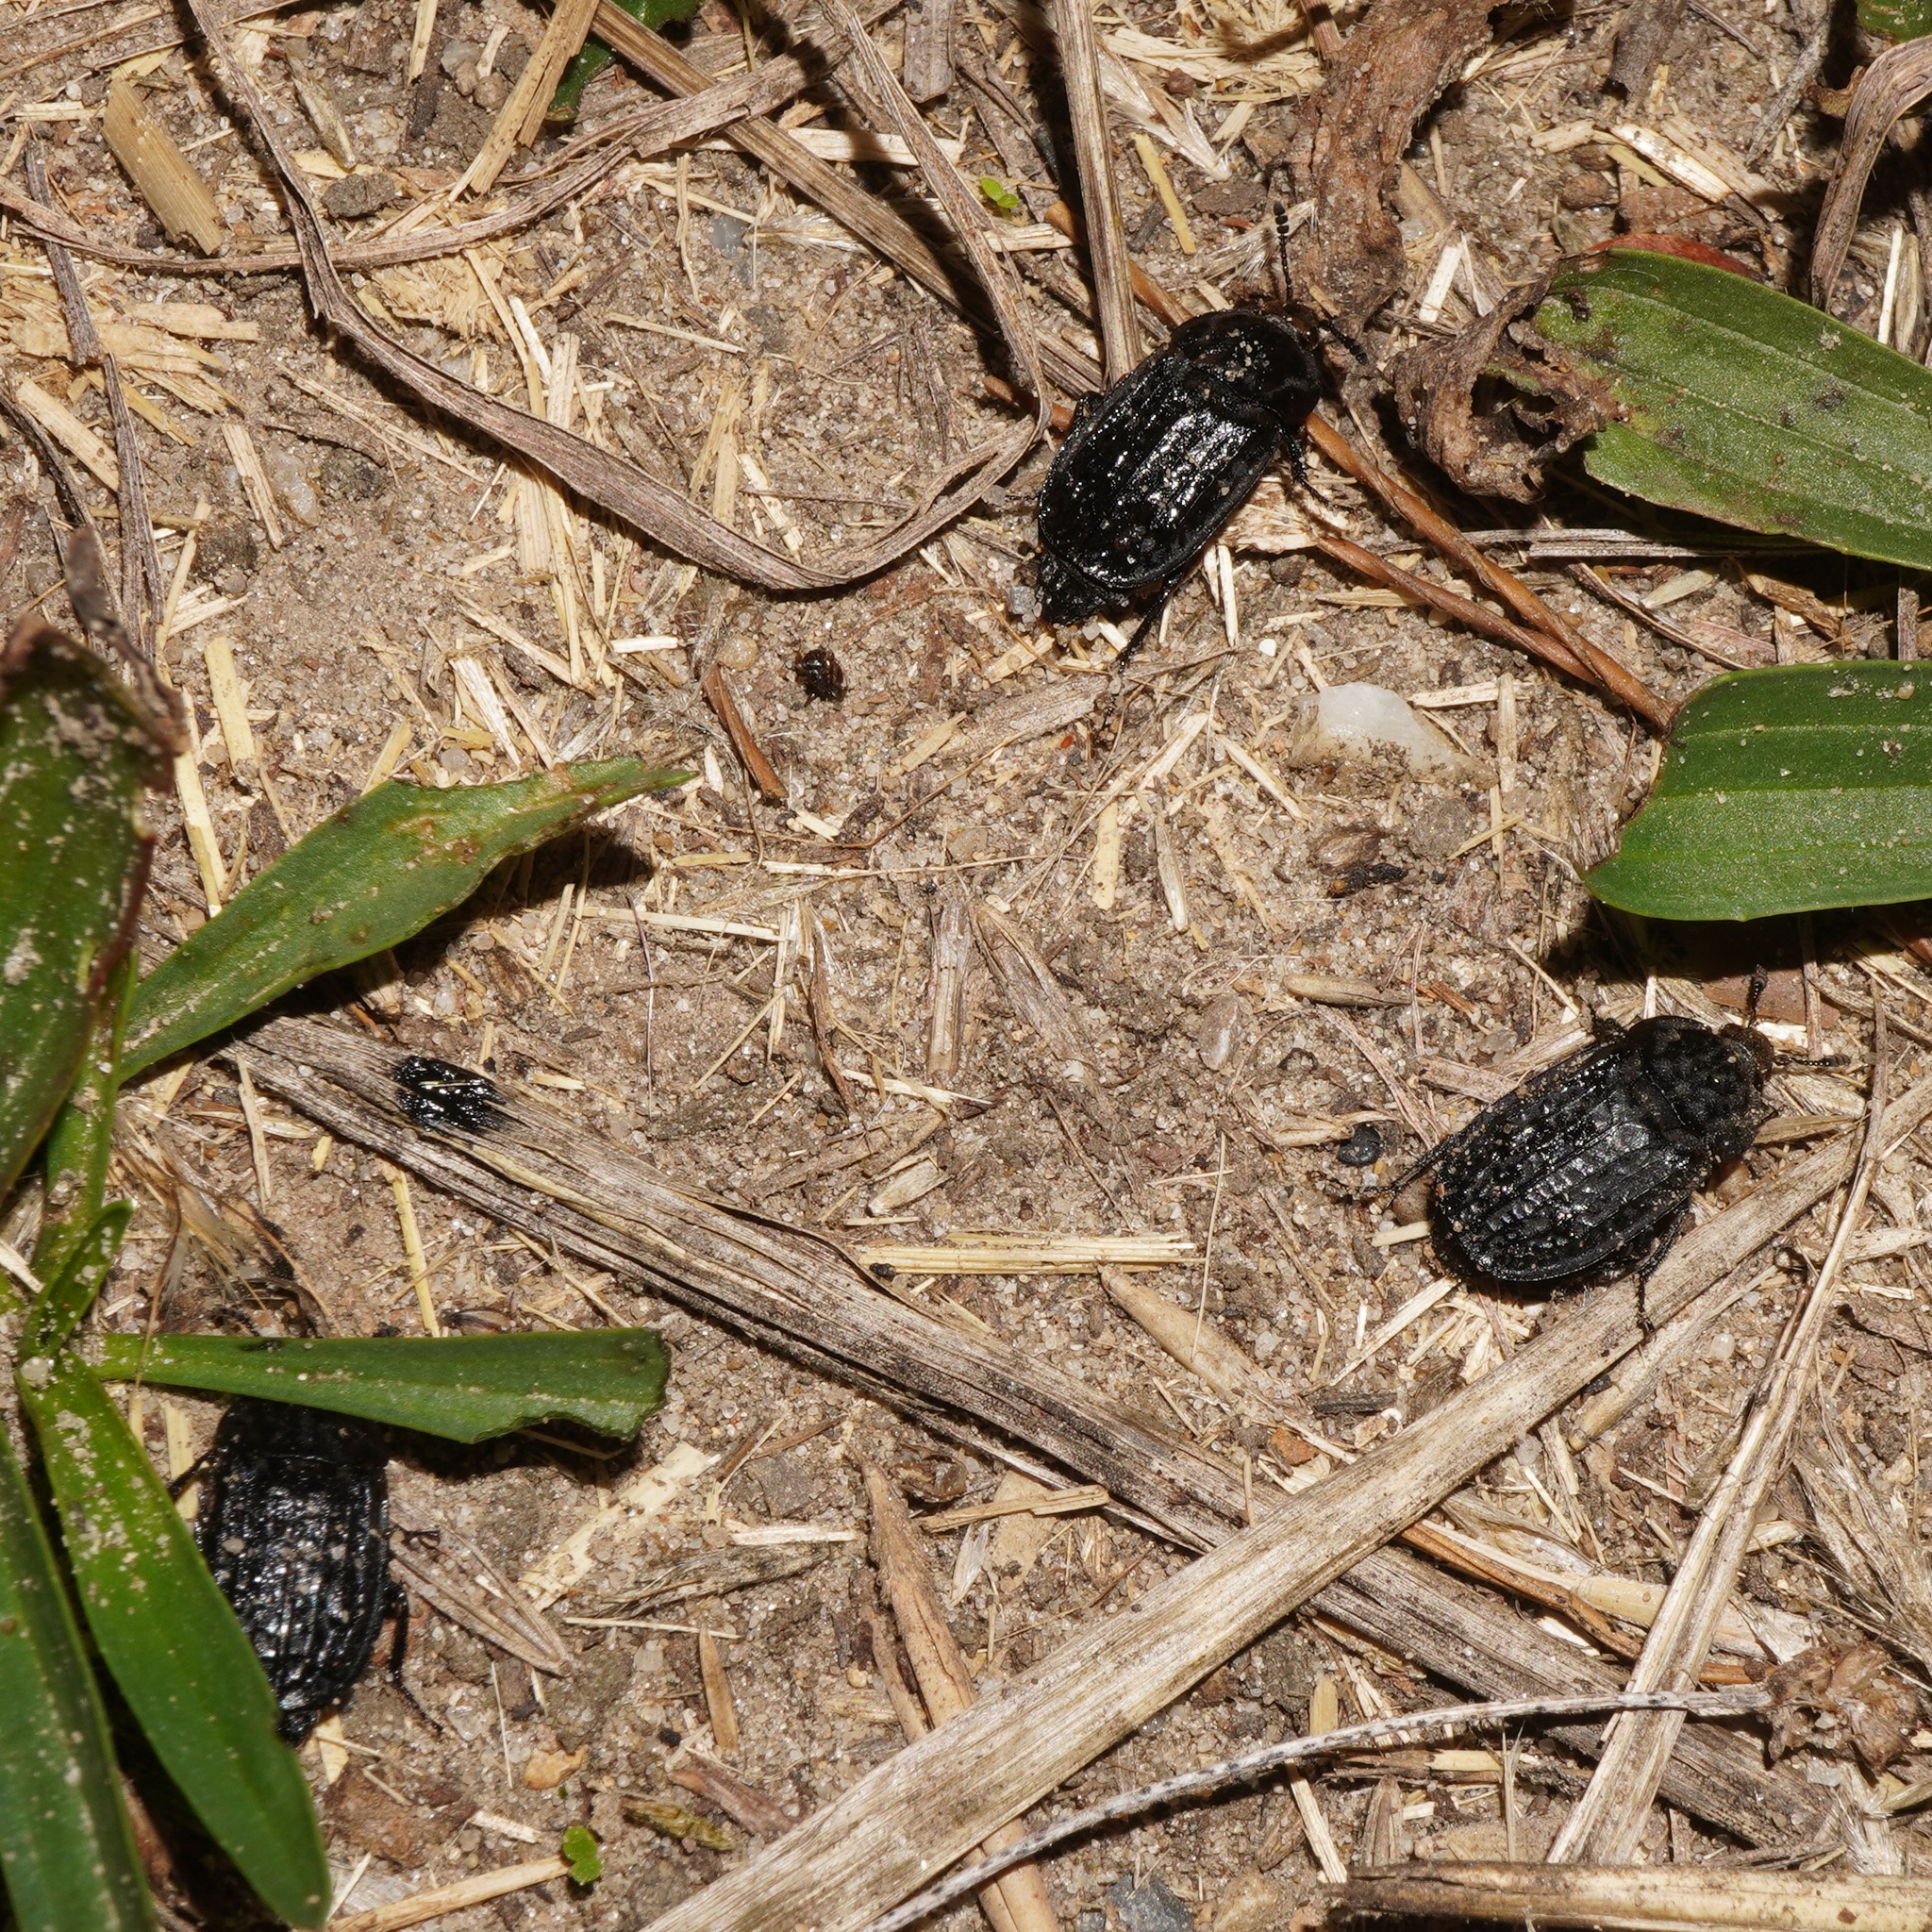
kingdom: Animalia
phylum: Arthropoda
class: Insecta
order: Coleoptera
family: Staphylinidae
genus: Thanatophilus
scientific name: Thanatophilus rugosus
